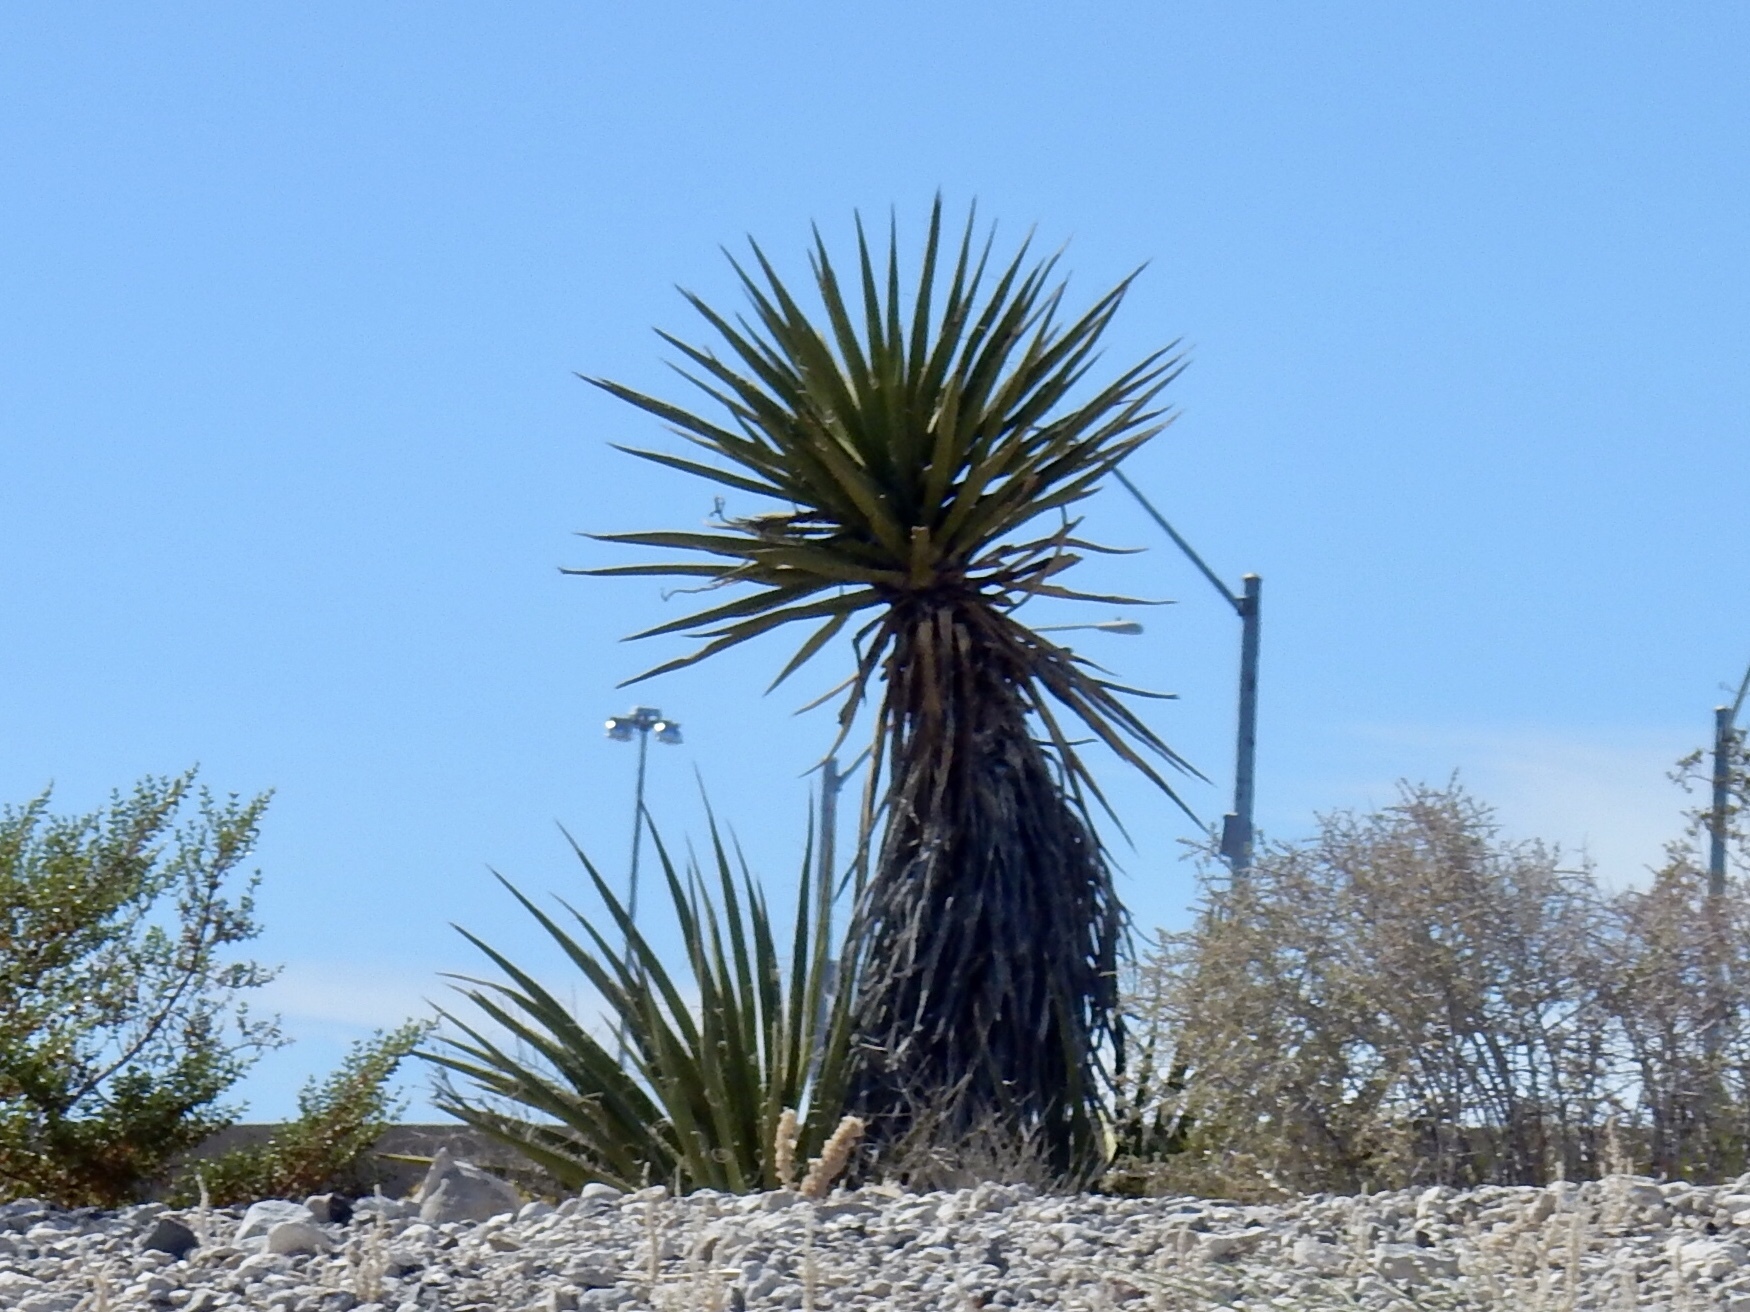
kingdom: Plantae
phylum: Tracheophyta
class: Liliopsida
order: Asparagales
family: Asparagaceae
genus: Yucca
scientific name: Yucca schidigera
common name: Mojave yucca
